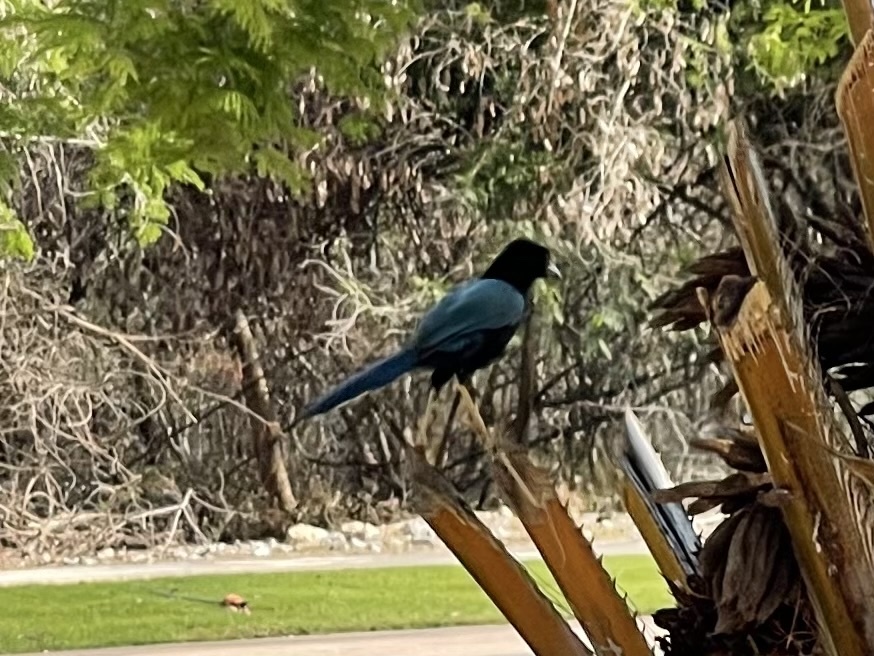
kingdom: Animalia
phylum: Chordata
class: Aves
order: Passeriformes
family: Corvidae
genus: Cyanocorax
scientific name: Cyanocorax yucatanicus
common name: Yucatan jay
